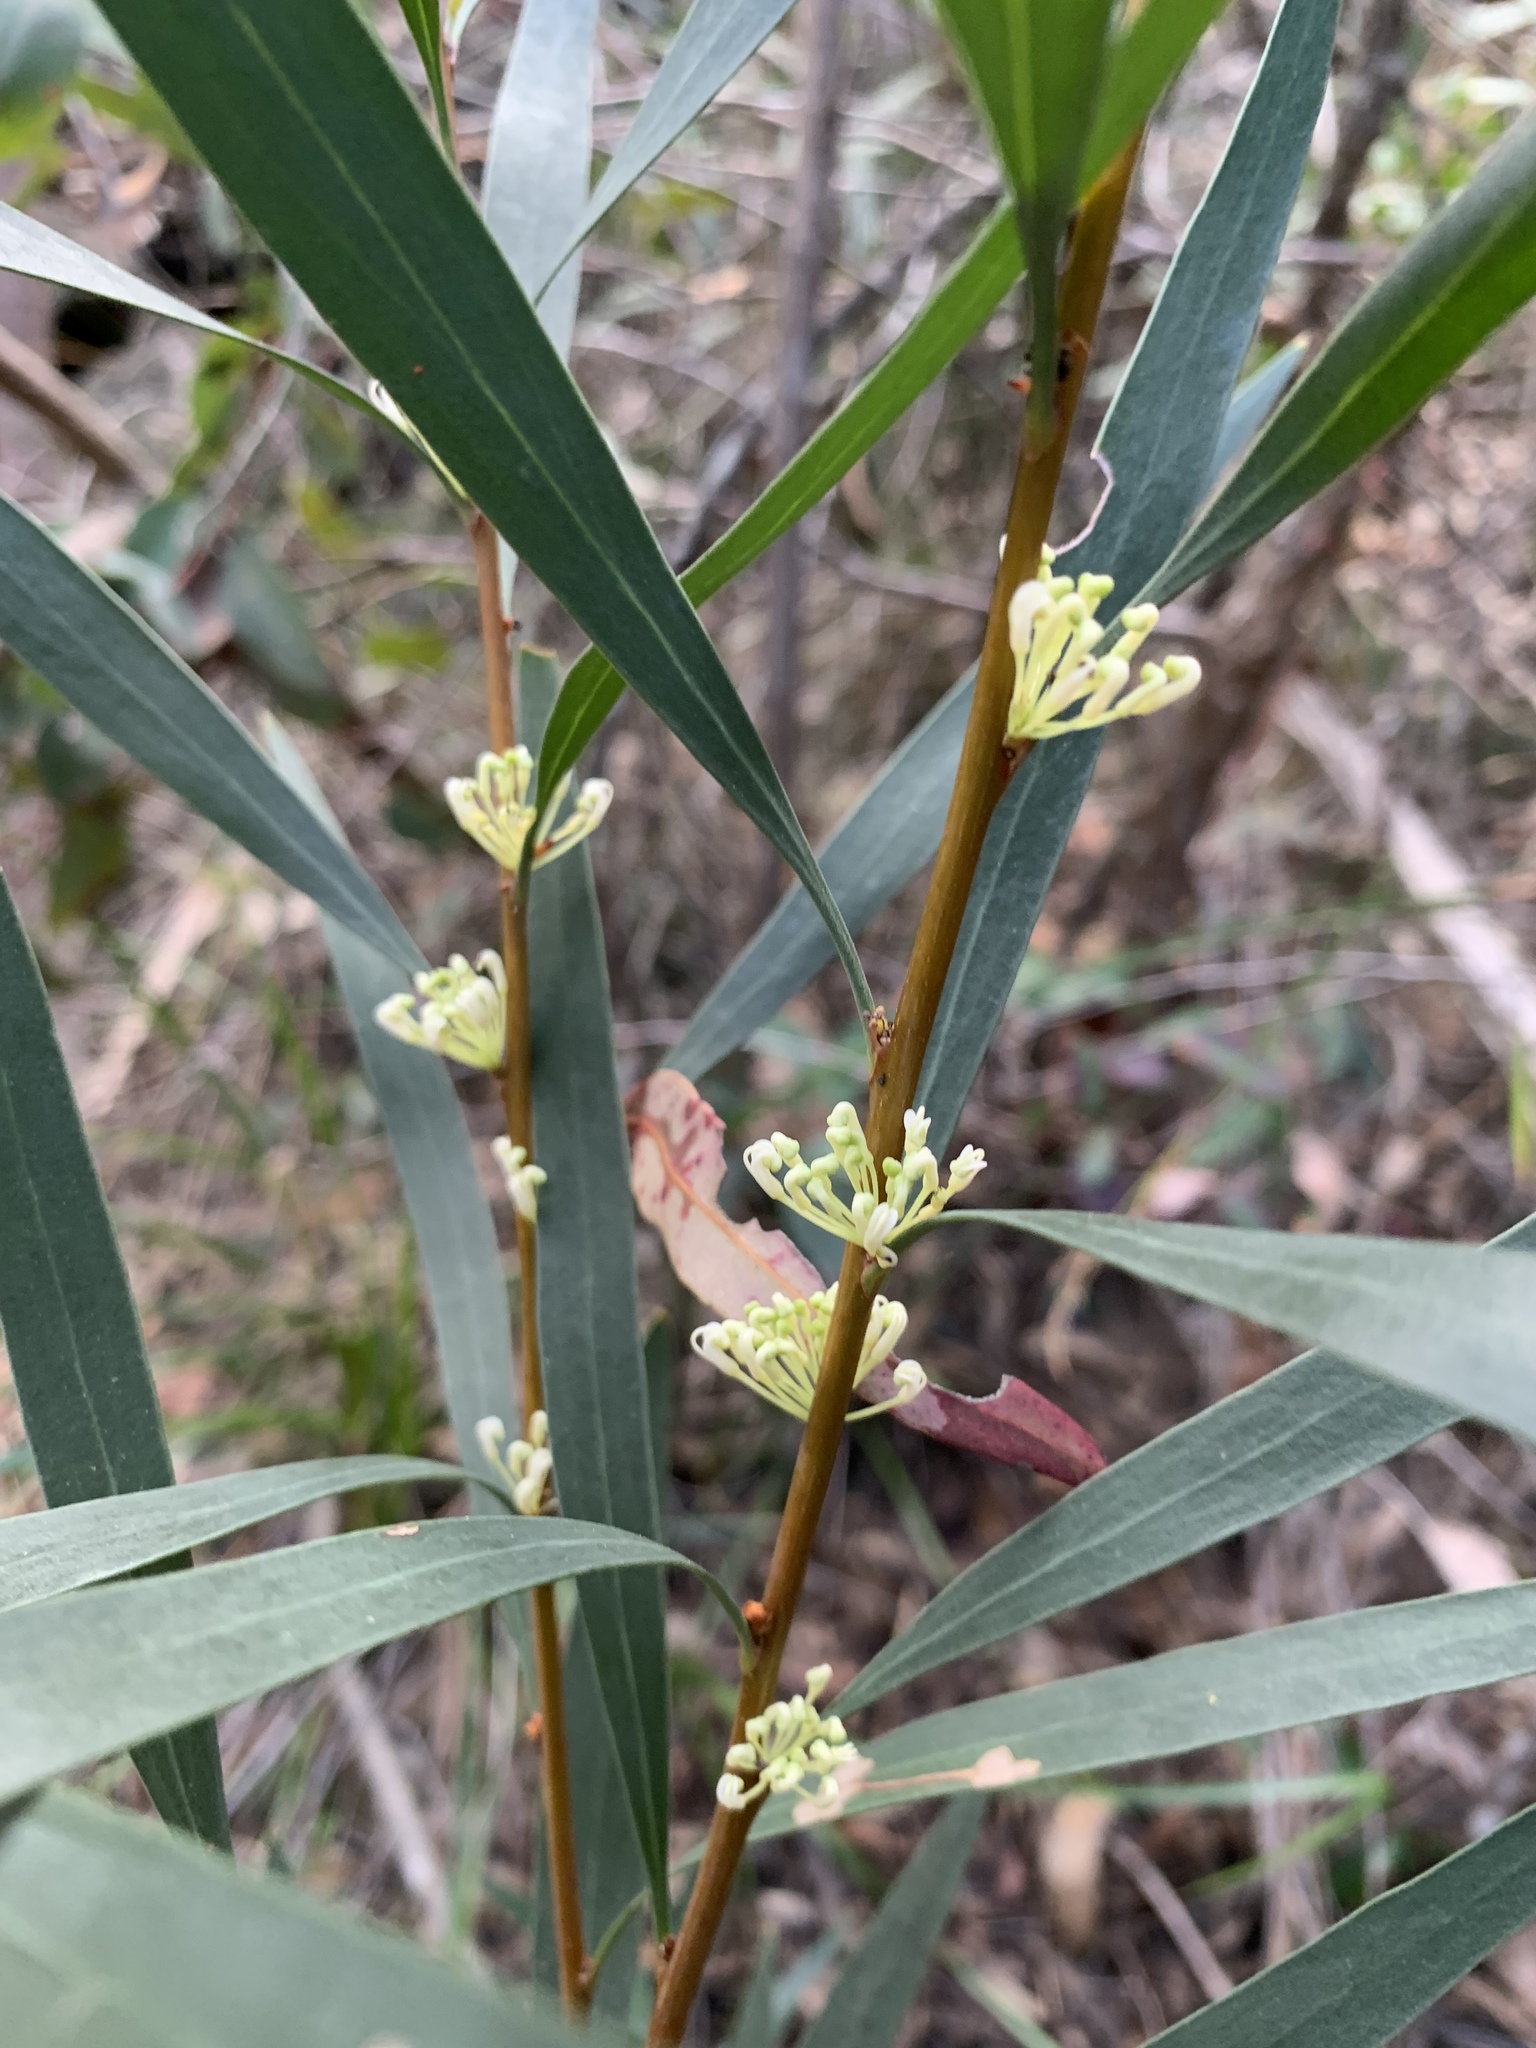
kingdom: Plantae
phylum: Tracheophyta
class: Magnoliopsida
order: Proteales
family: Proteaceae
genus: Hakea
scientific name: Hakea salicifolia
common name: Willow hakea
